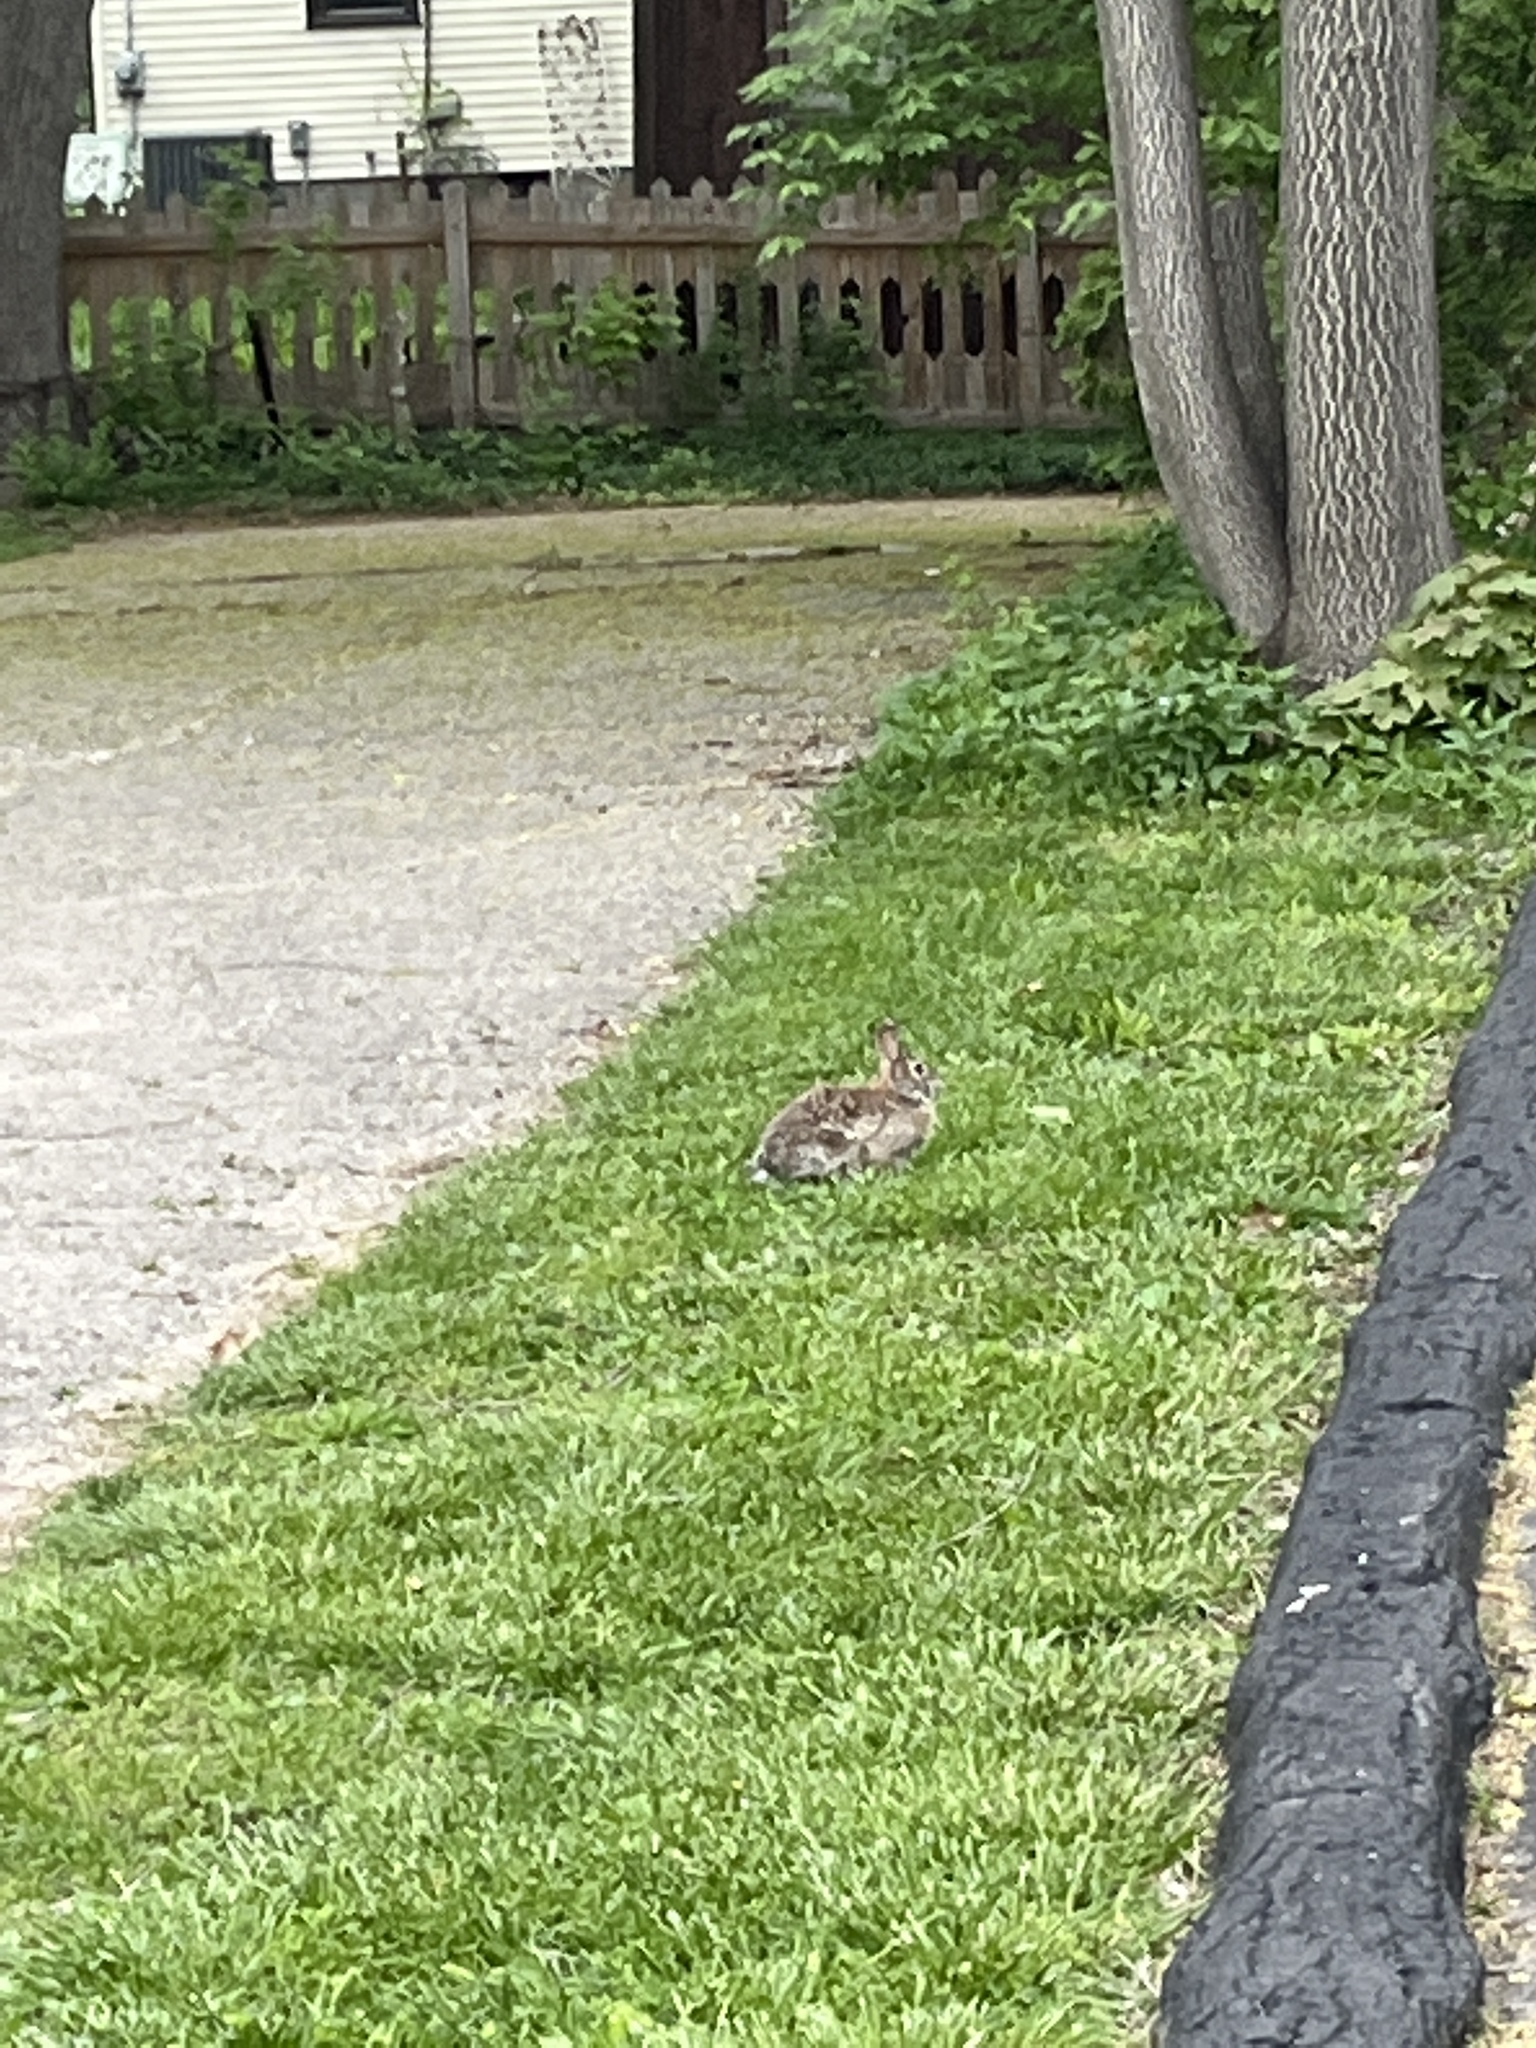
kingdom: Animalia
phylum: Chordata
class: Mammalia
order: Lagomorpha
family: Leporidae
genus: Sylvilagus
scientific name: Sylvilagus floridanus
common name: Eastern cottontail
